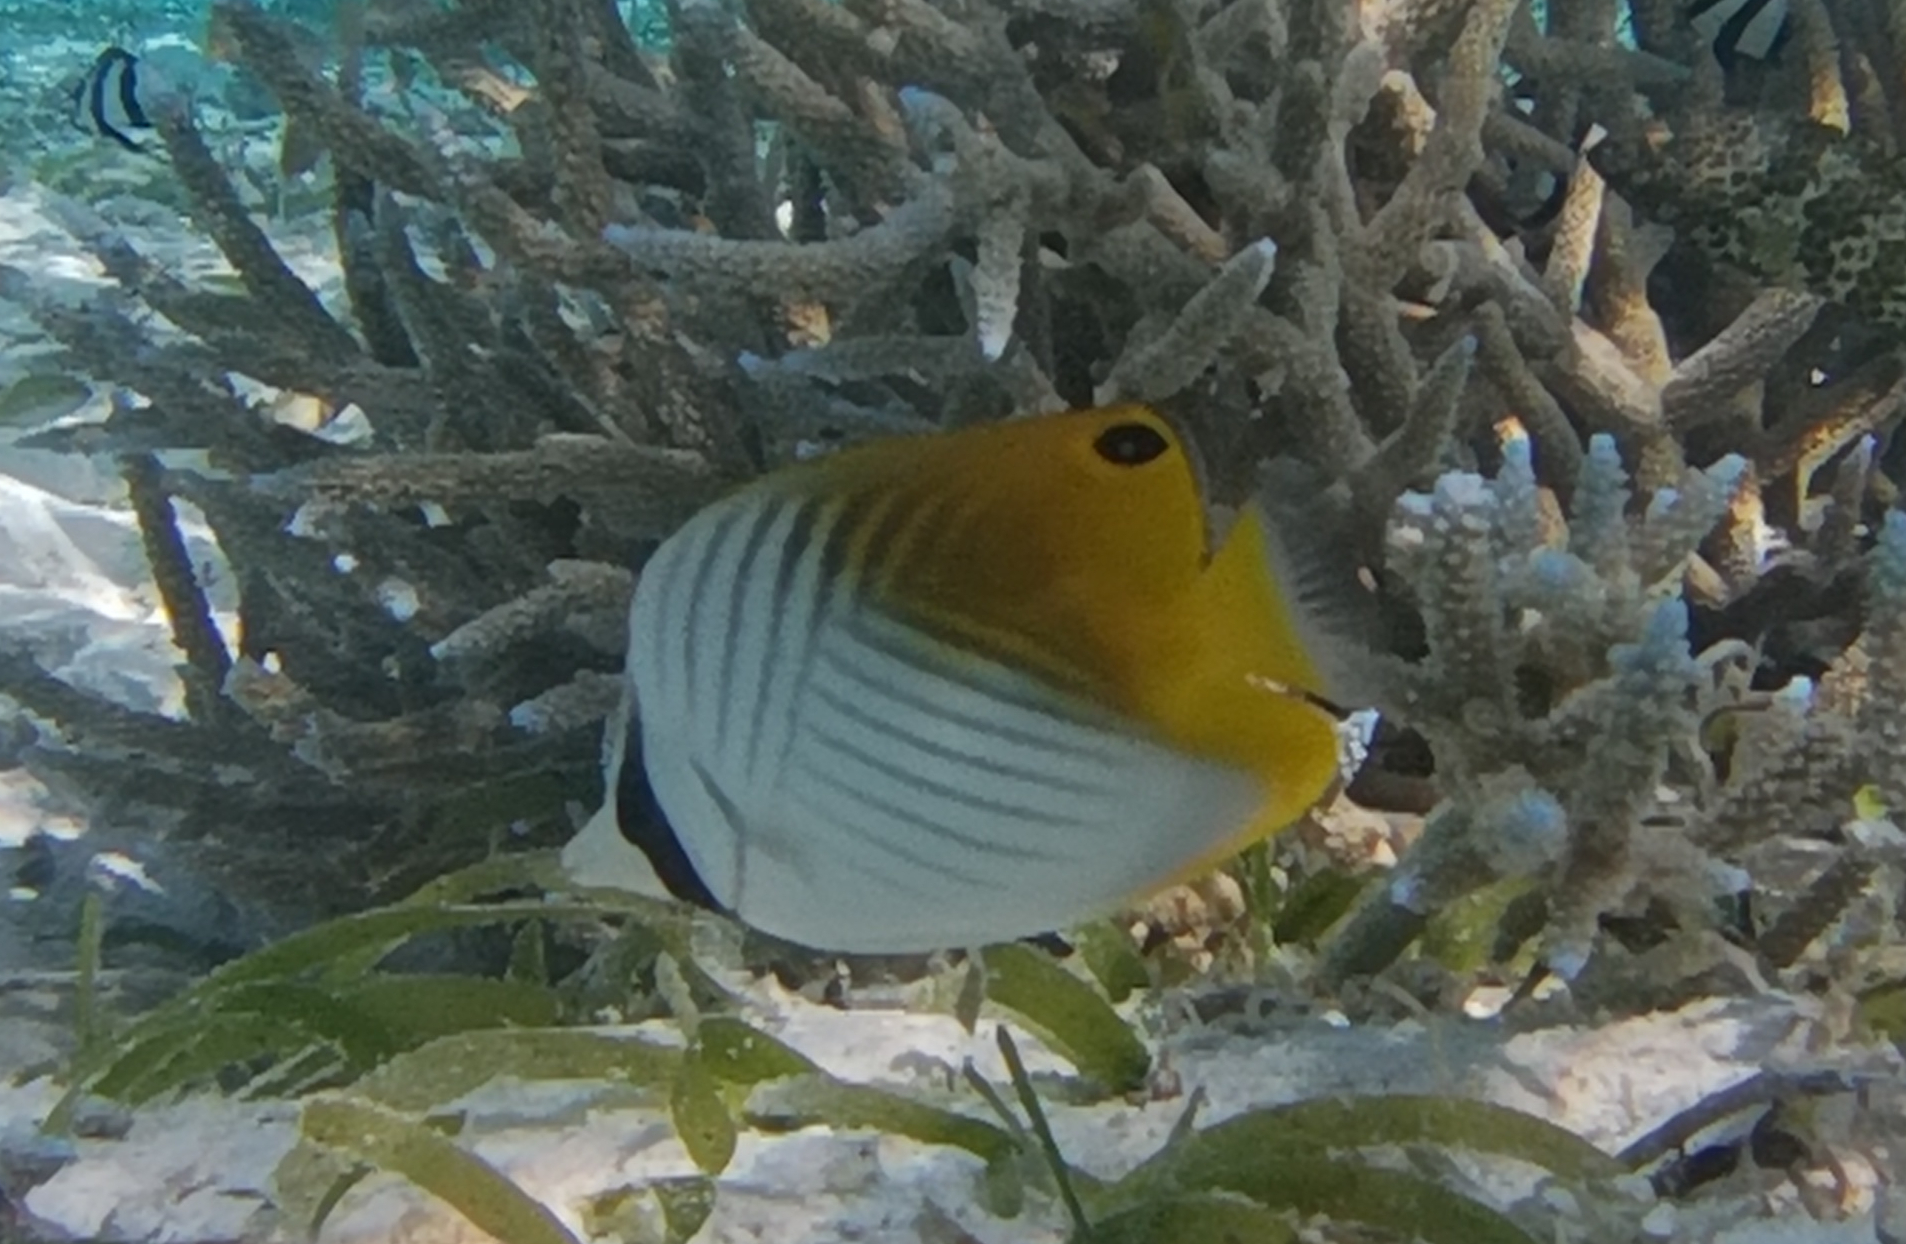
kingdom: Animalia
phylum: Chordata
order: Perciformes
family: Chaetodontidae
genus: Chaetodon
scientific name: Chaetodon auriga
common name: Threadfin butterflyfish
